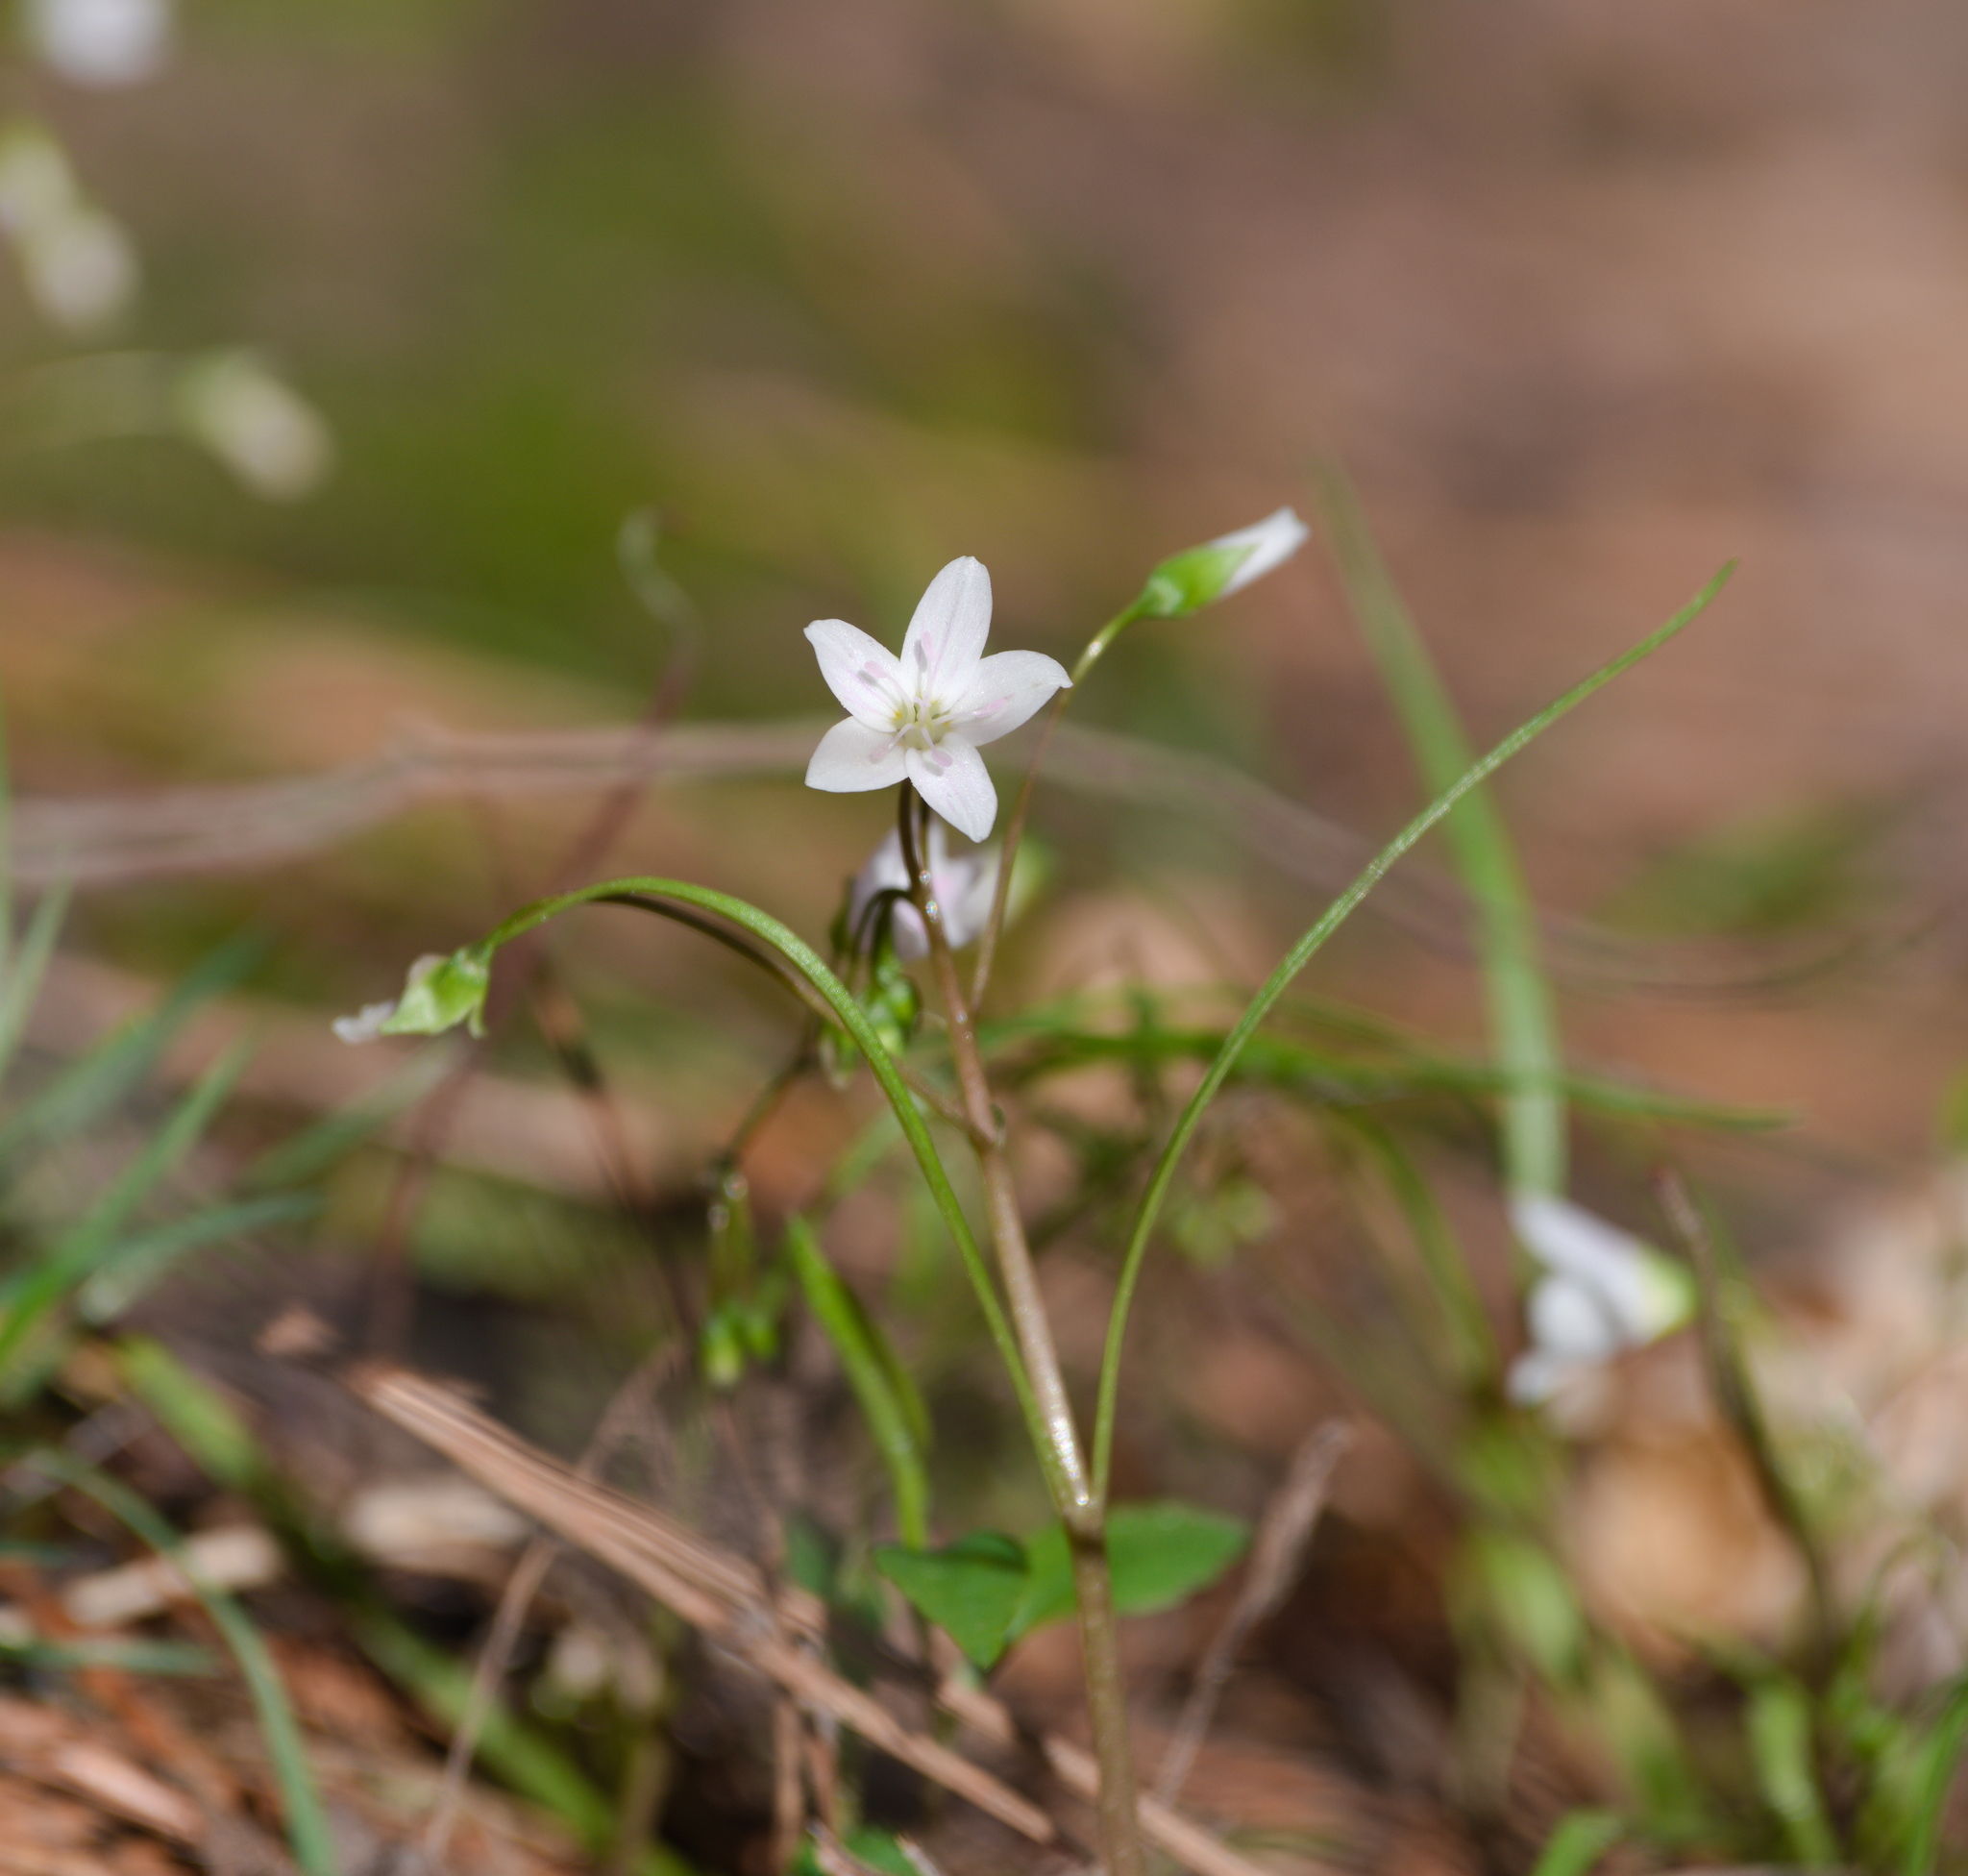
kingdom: Plantae
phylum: Tracheophyta
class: Magnoliopsida
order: Caryophyllales
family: Montiaceae
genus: Claytonia
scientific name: Claytonia virginica
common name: Virginia springbeauty
